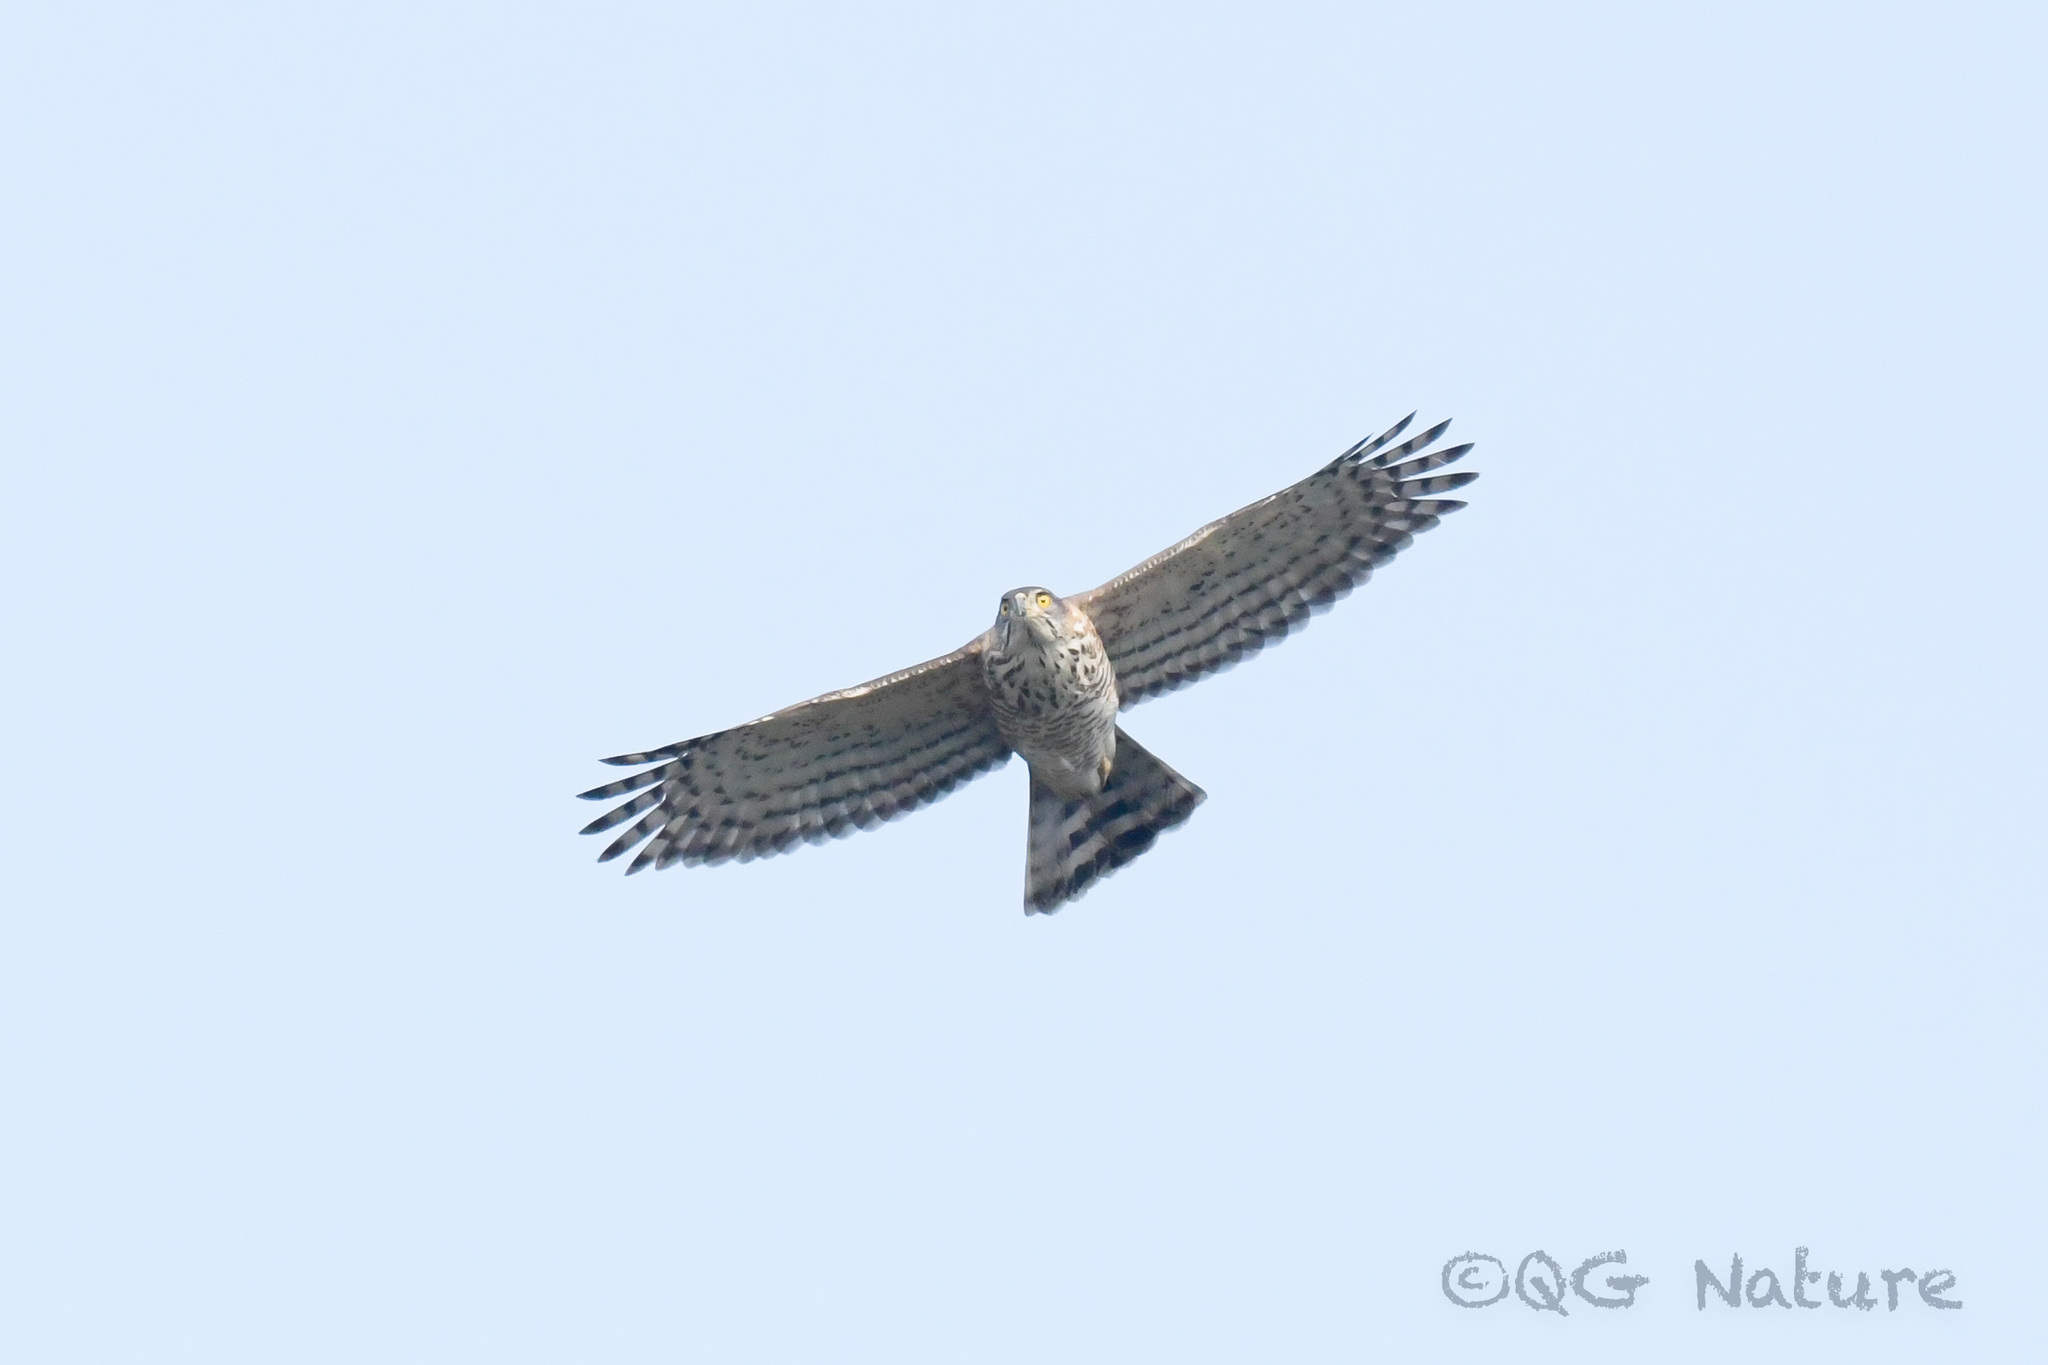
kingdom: Animalia
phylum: Chordata
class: Aves
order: Accipitriformes
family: Accipitridae
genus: Accipiter
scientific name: Accipiter trivirgatus
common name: Crested goshawk
